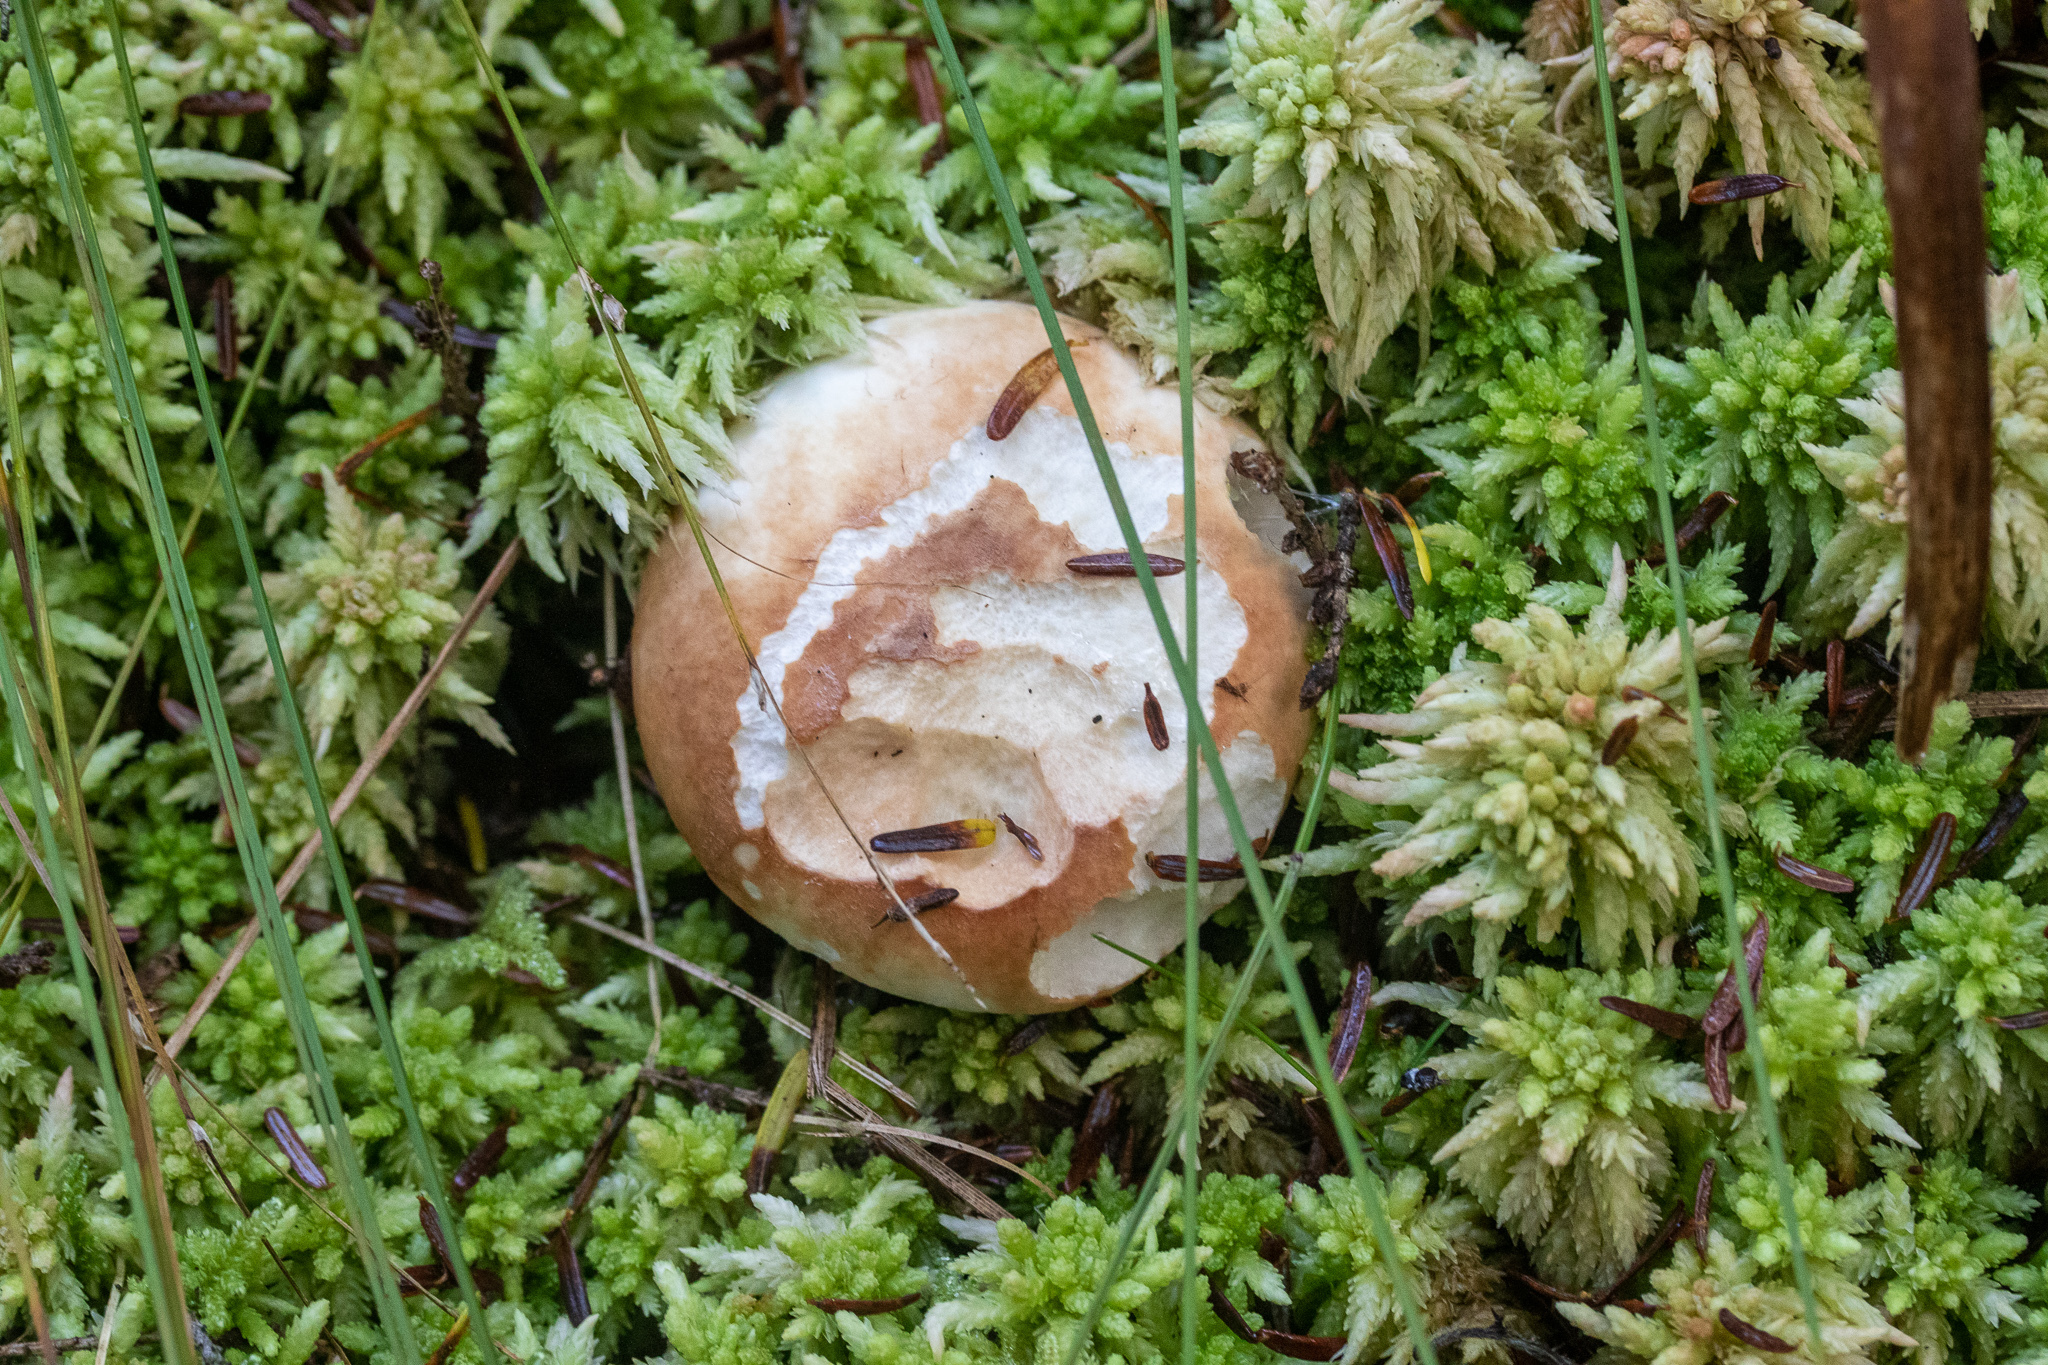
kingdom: Fungi
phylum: Basidiomycota
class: Agaricomycetes
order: Russulales
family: Russulaceae
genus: Russula
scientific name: Russula compacta
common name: Fishbiscuit russula
